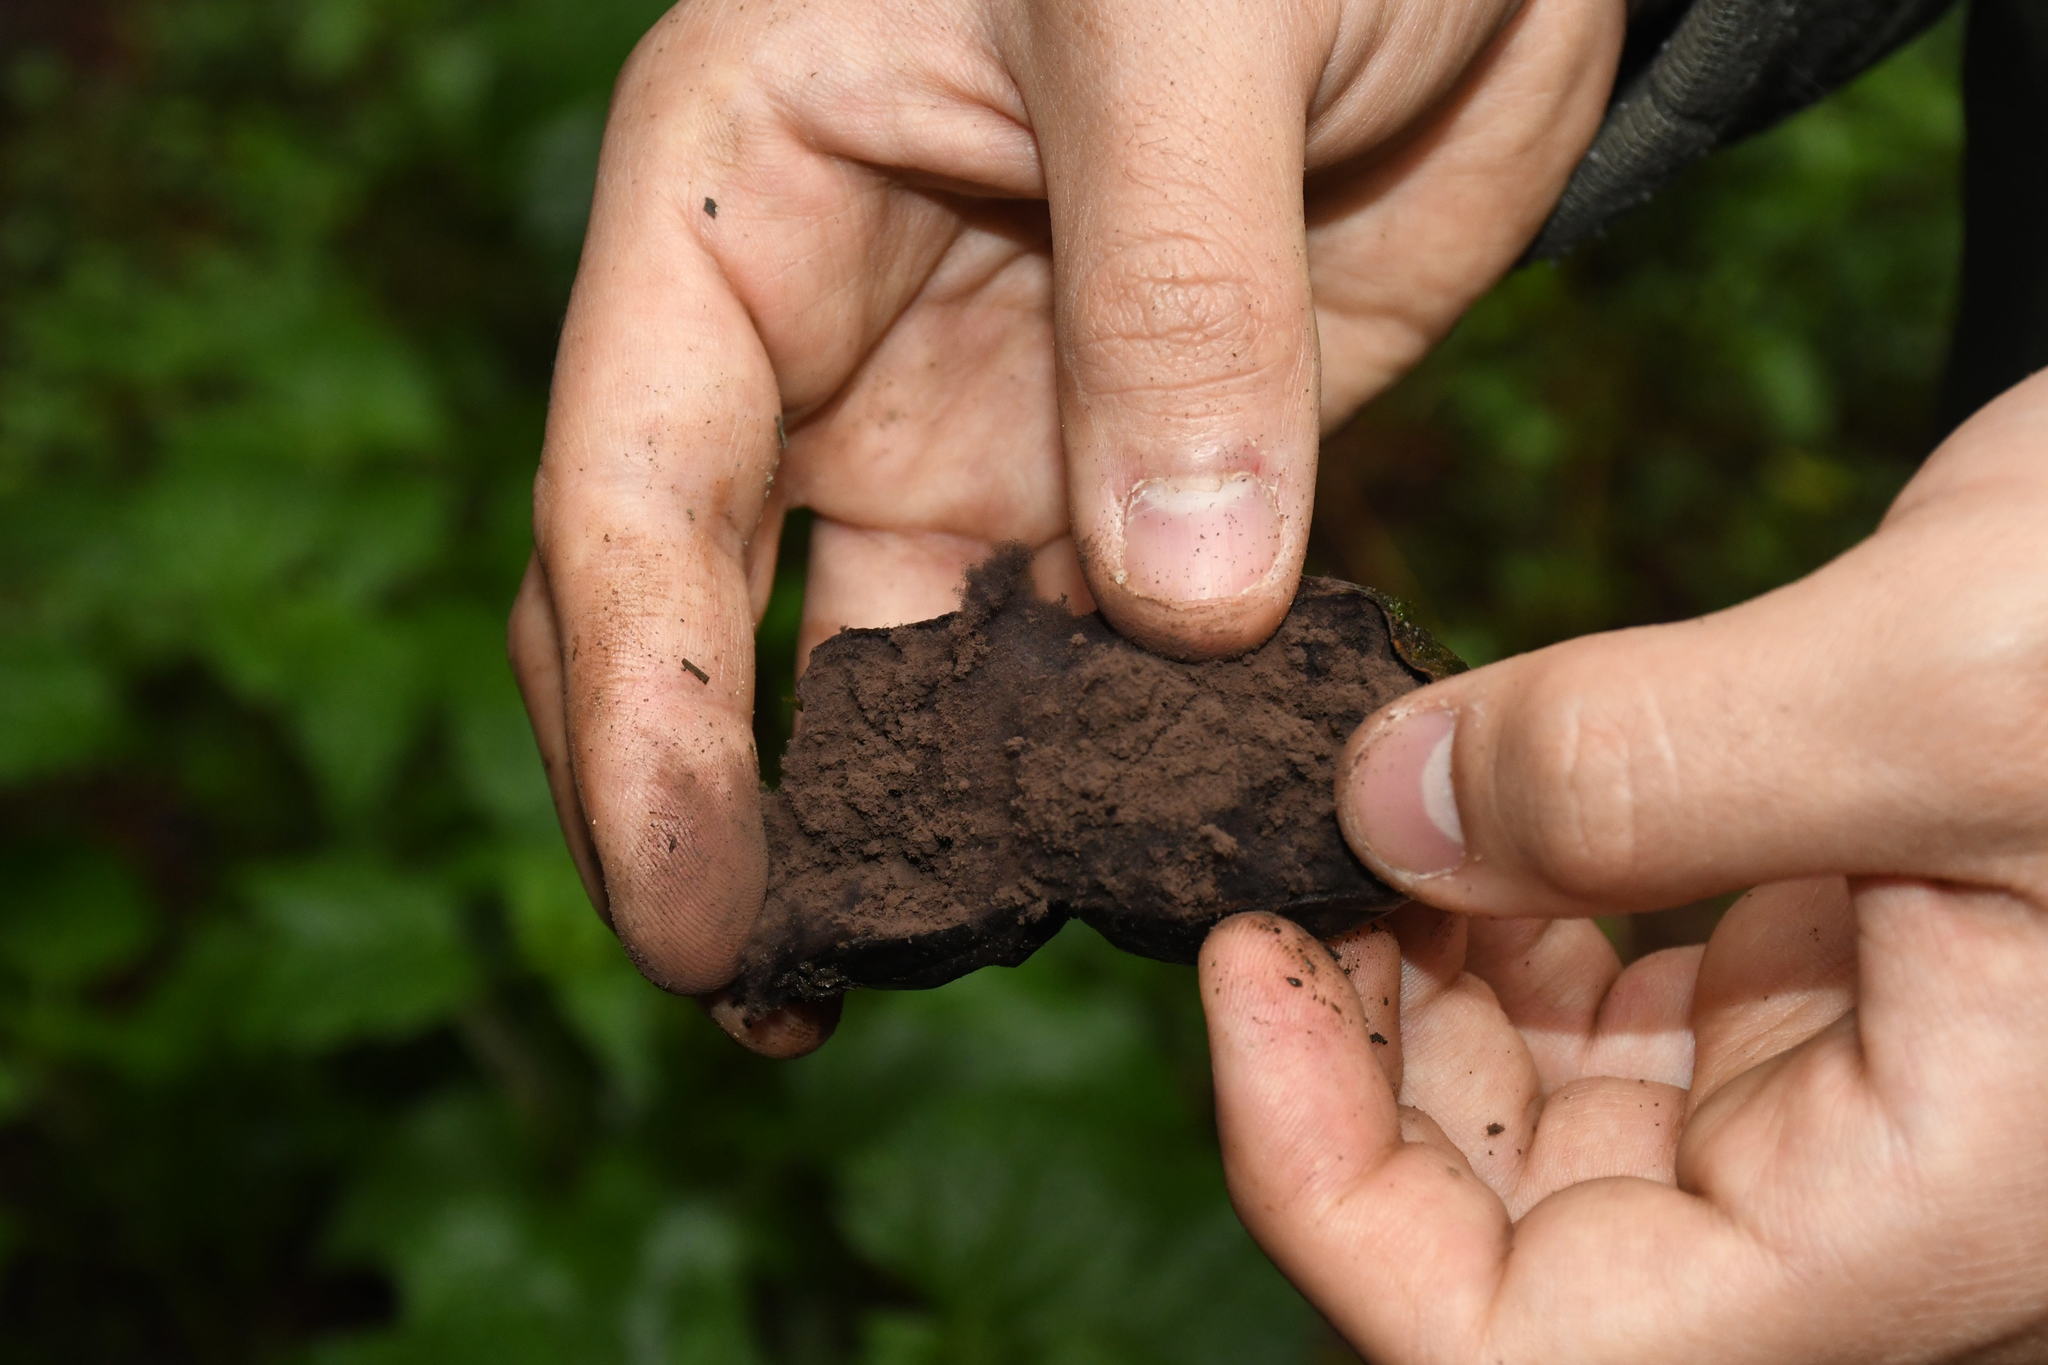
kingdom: Fungi
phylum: Basidiomycota
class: Agaricomycetes
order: Agaricales
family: Lycoperdaceae
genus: Lycoperdon
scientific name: Lycoperdon umbrinum
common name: Umber-brown puffball
